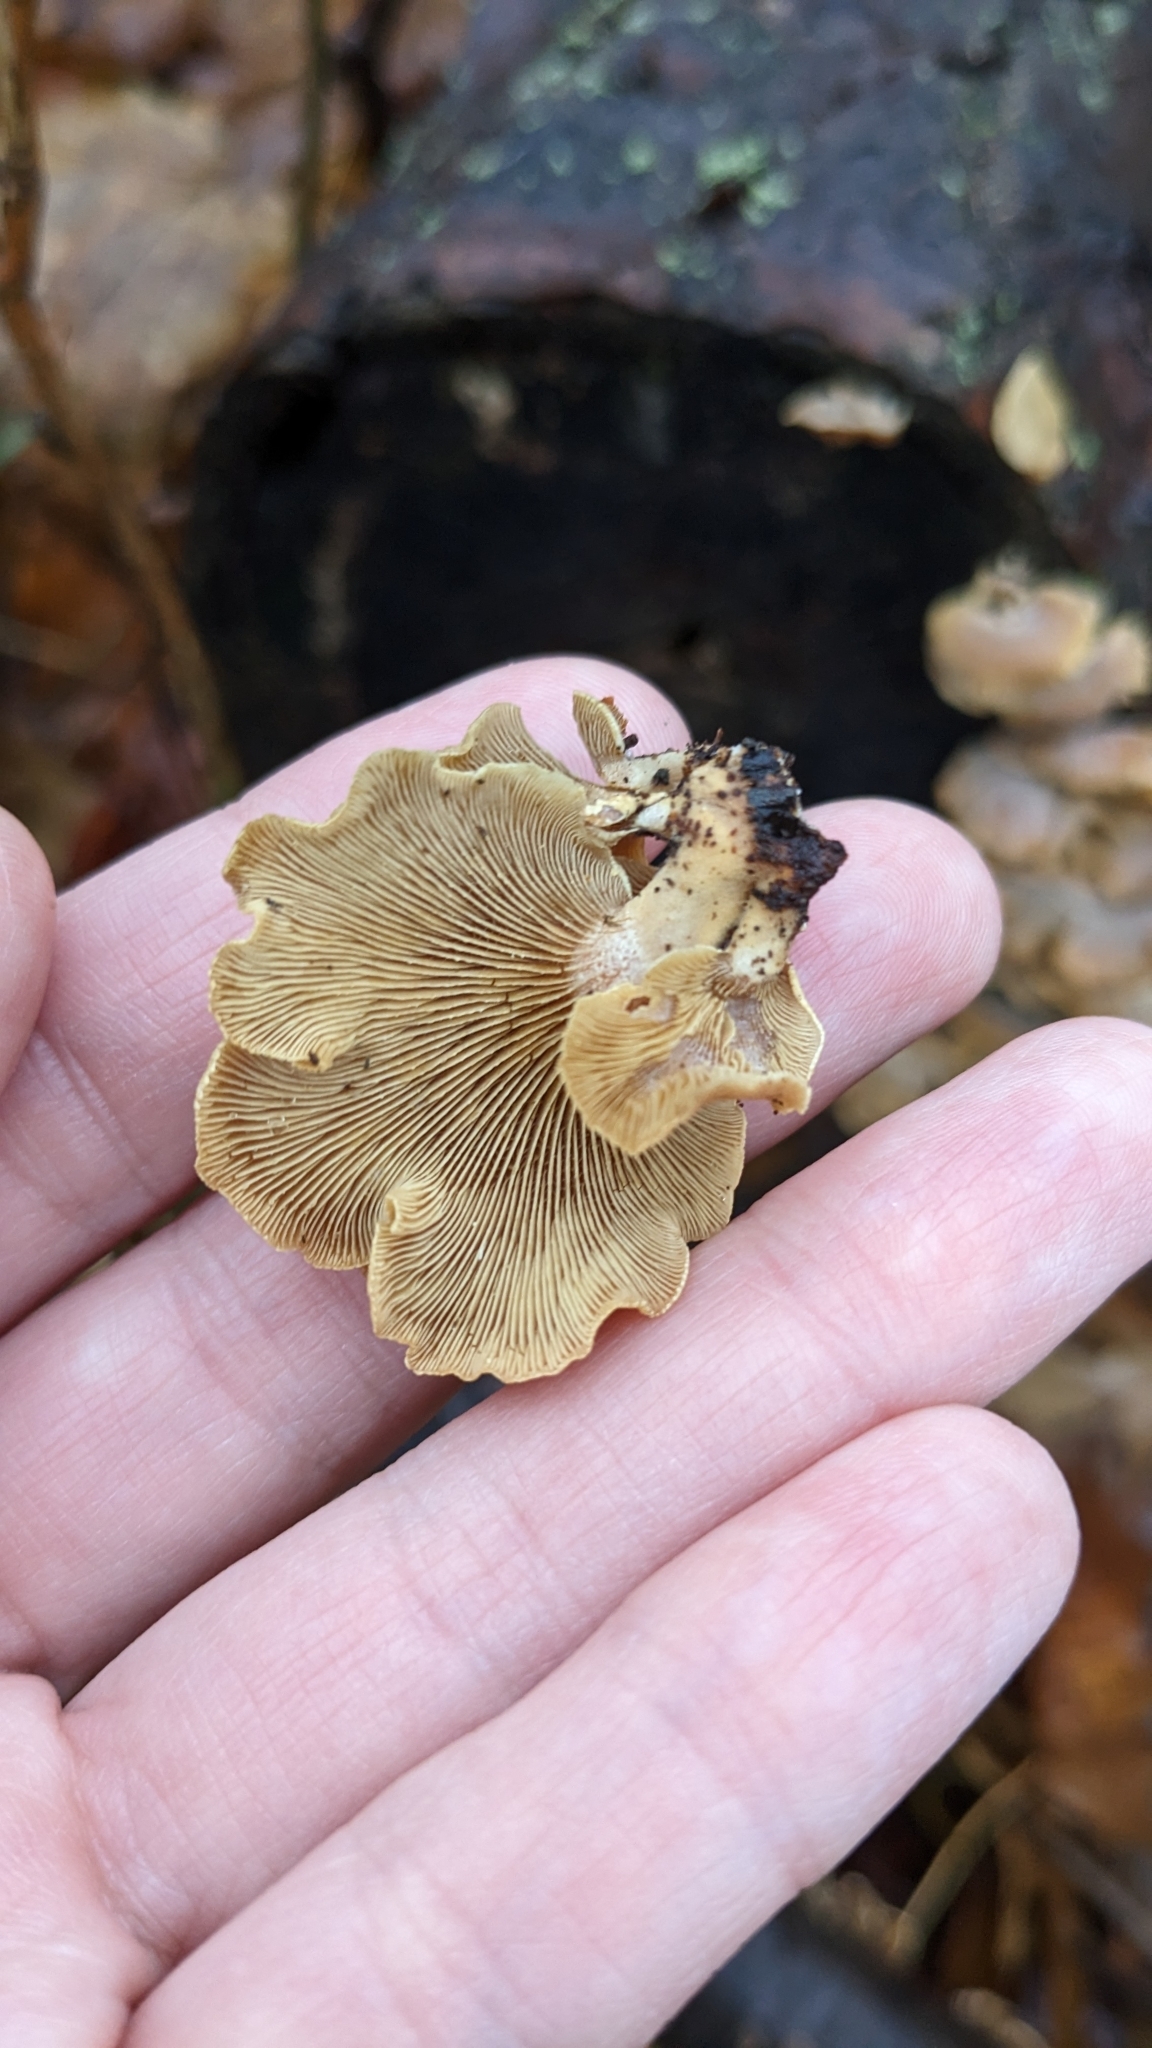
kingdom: Fungi
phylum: Basidiomycota
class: Agaricomycetes
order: Agaricales
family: Mycenaceae
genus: Panellus
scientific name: Panellus stipticus
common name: Bitter oysterling
